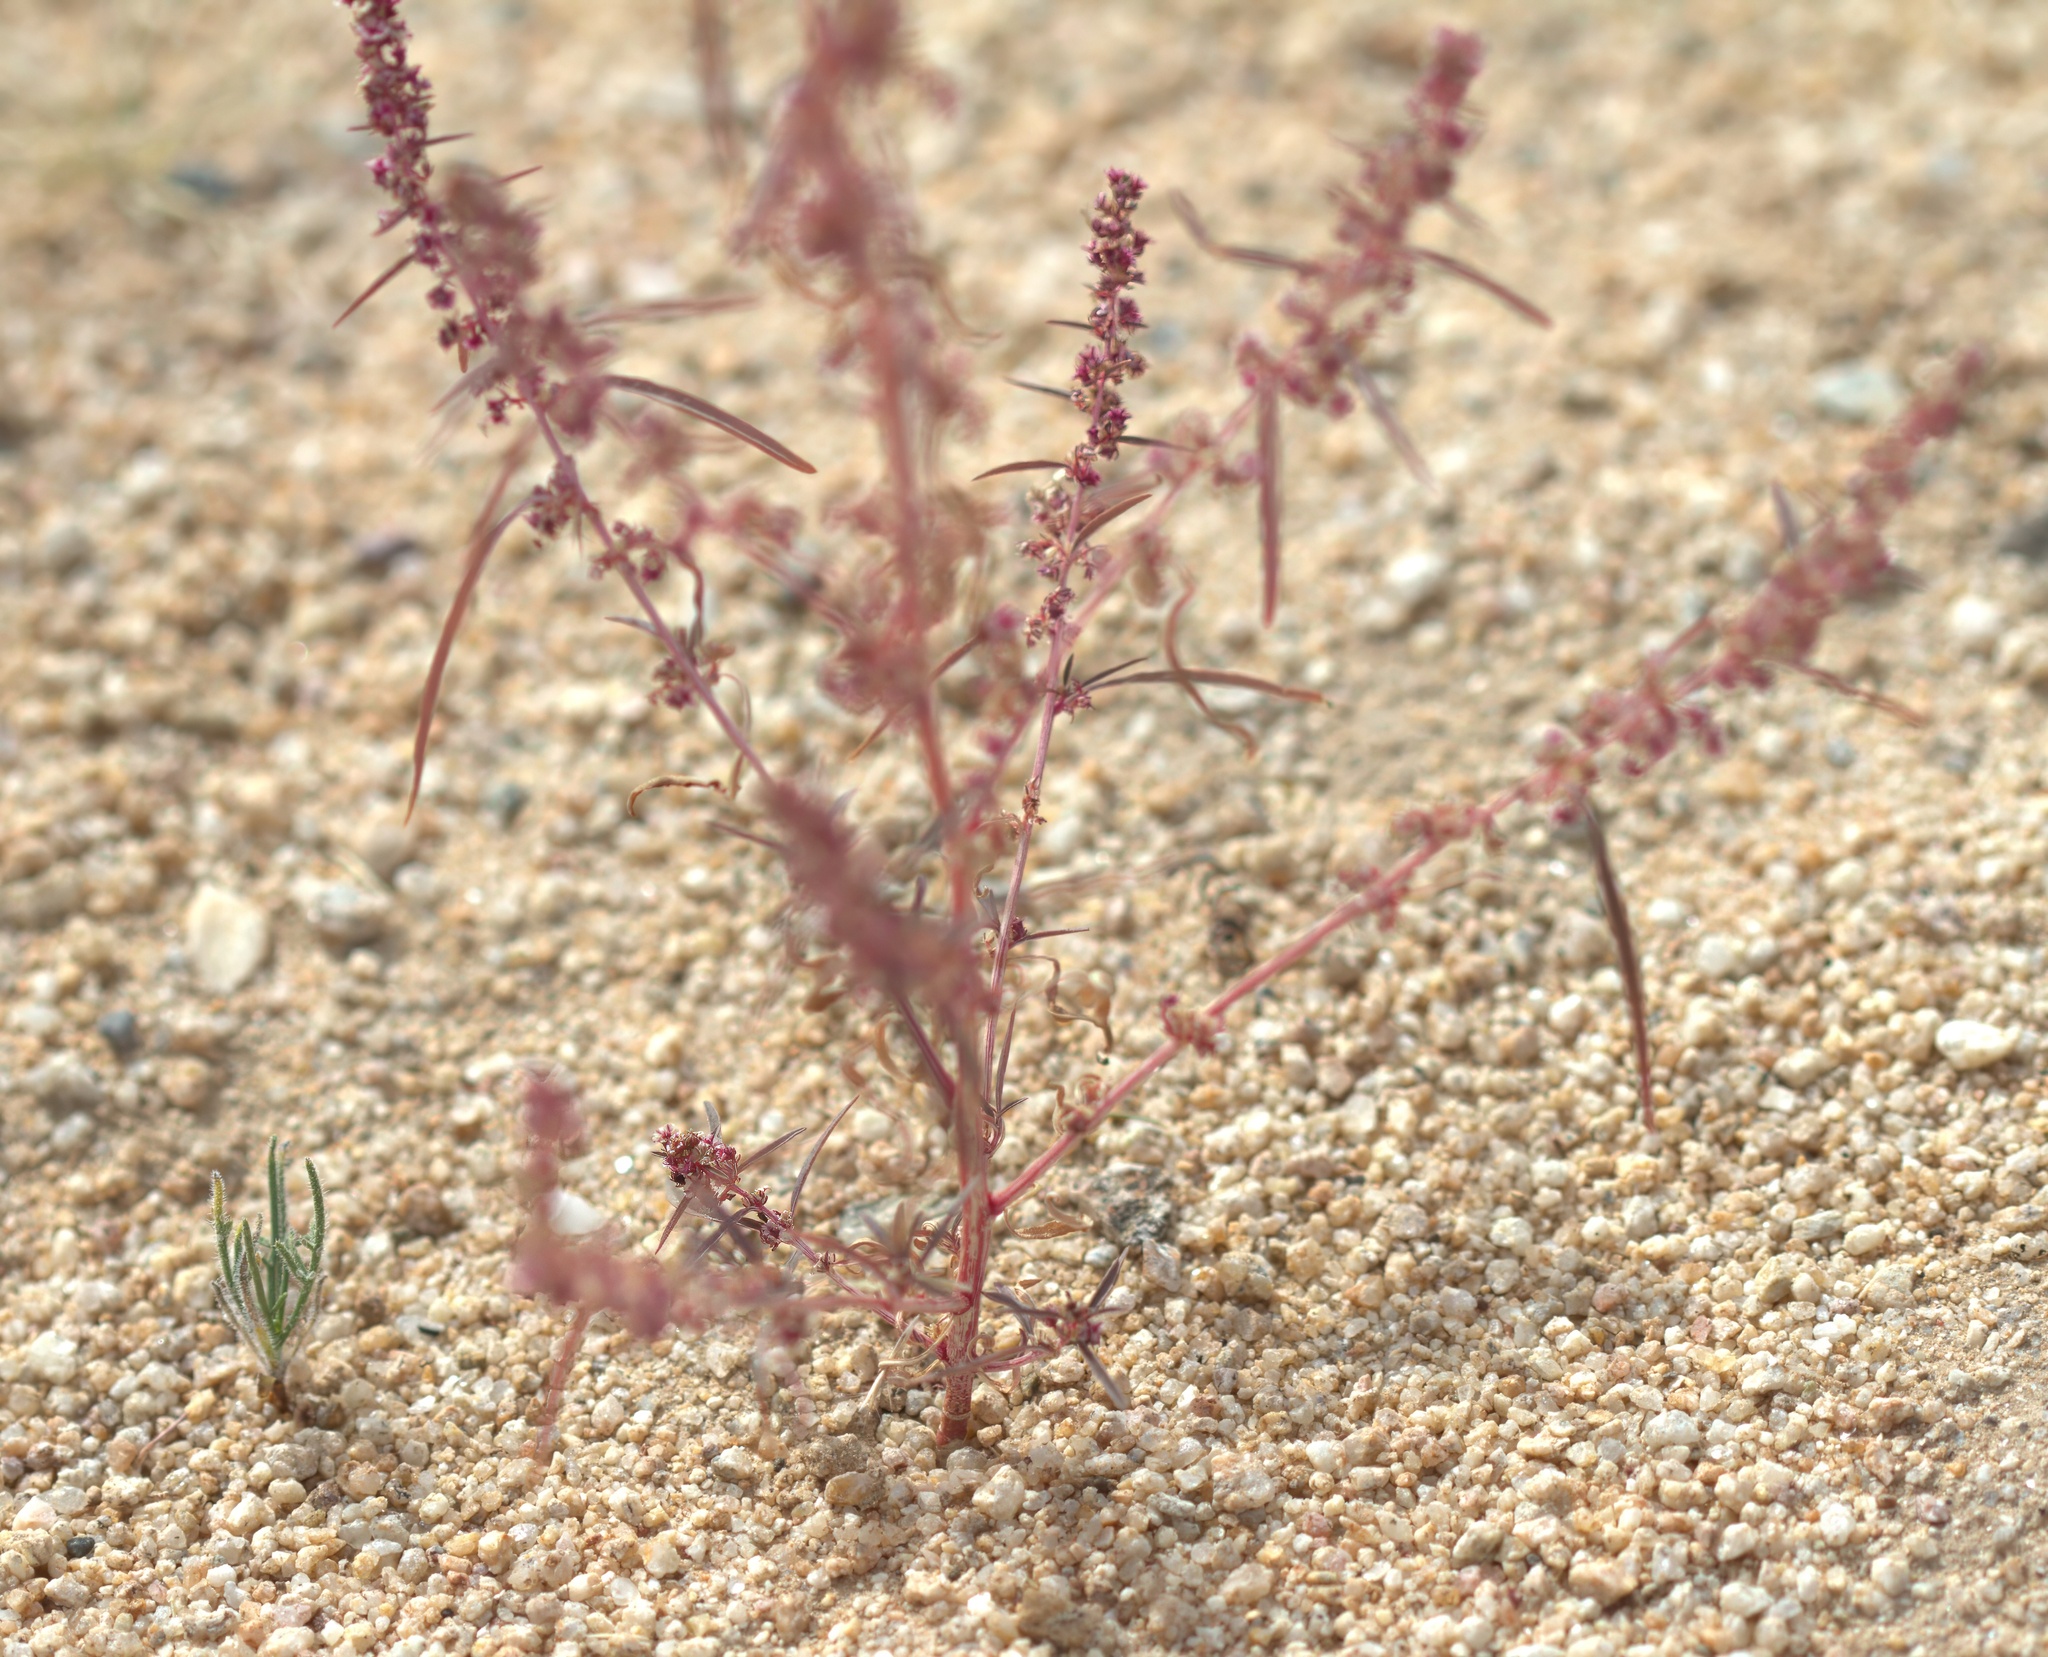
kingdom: Plantae
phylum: Tracheophyta
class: Magnoliopsida
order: Caryophyllales
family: Amaranthaceae
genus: Amaranthus
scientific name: Amaranthus fimbriatus
